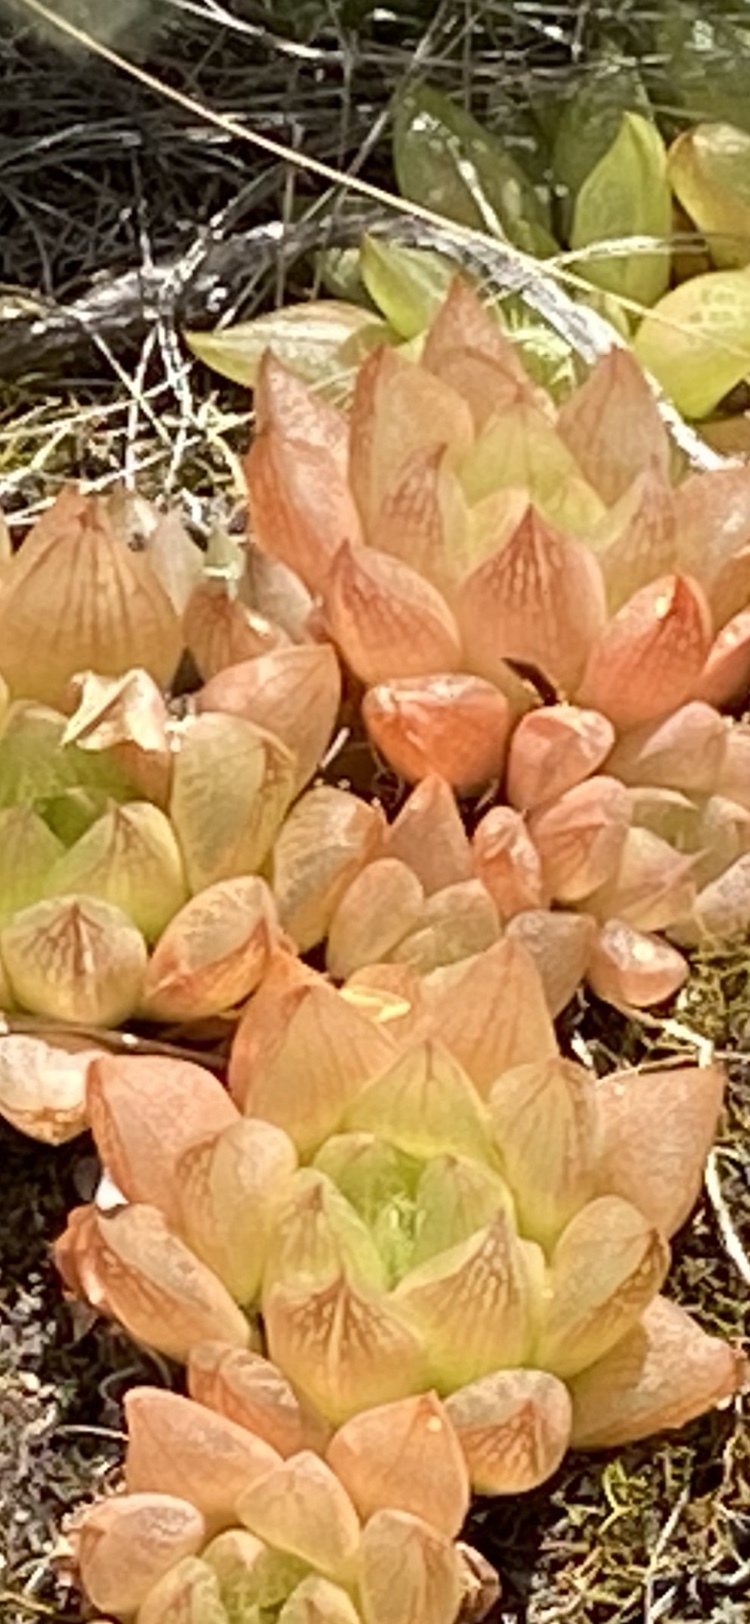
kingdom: Plantae
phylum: Tracheophyta
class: Liliopsida
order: Asparagales
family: Asphodelaceae
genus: Haworthia
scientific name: Haworthia turgida
